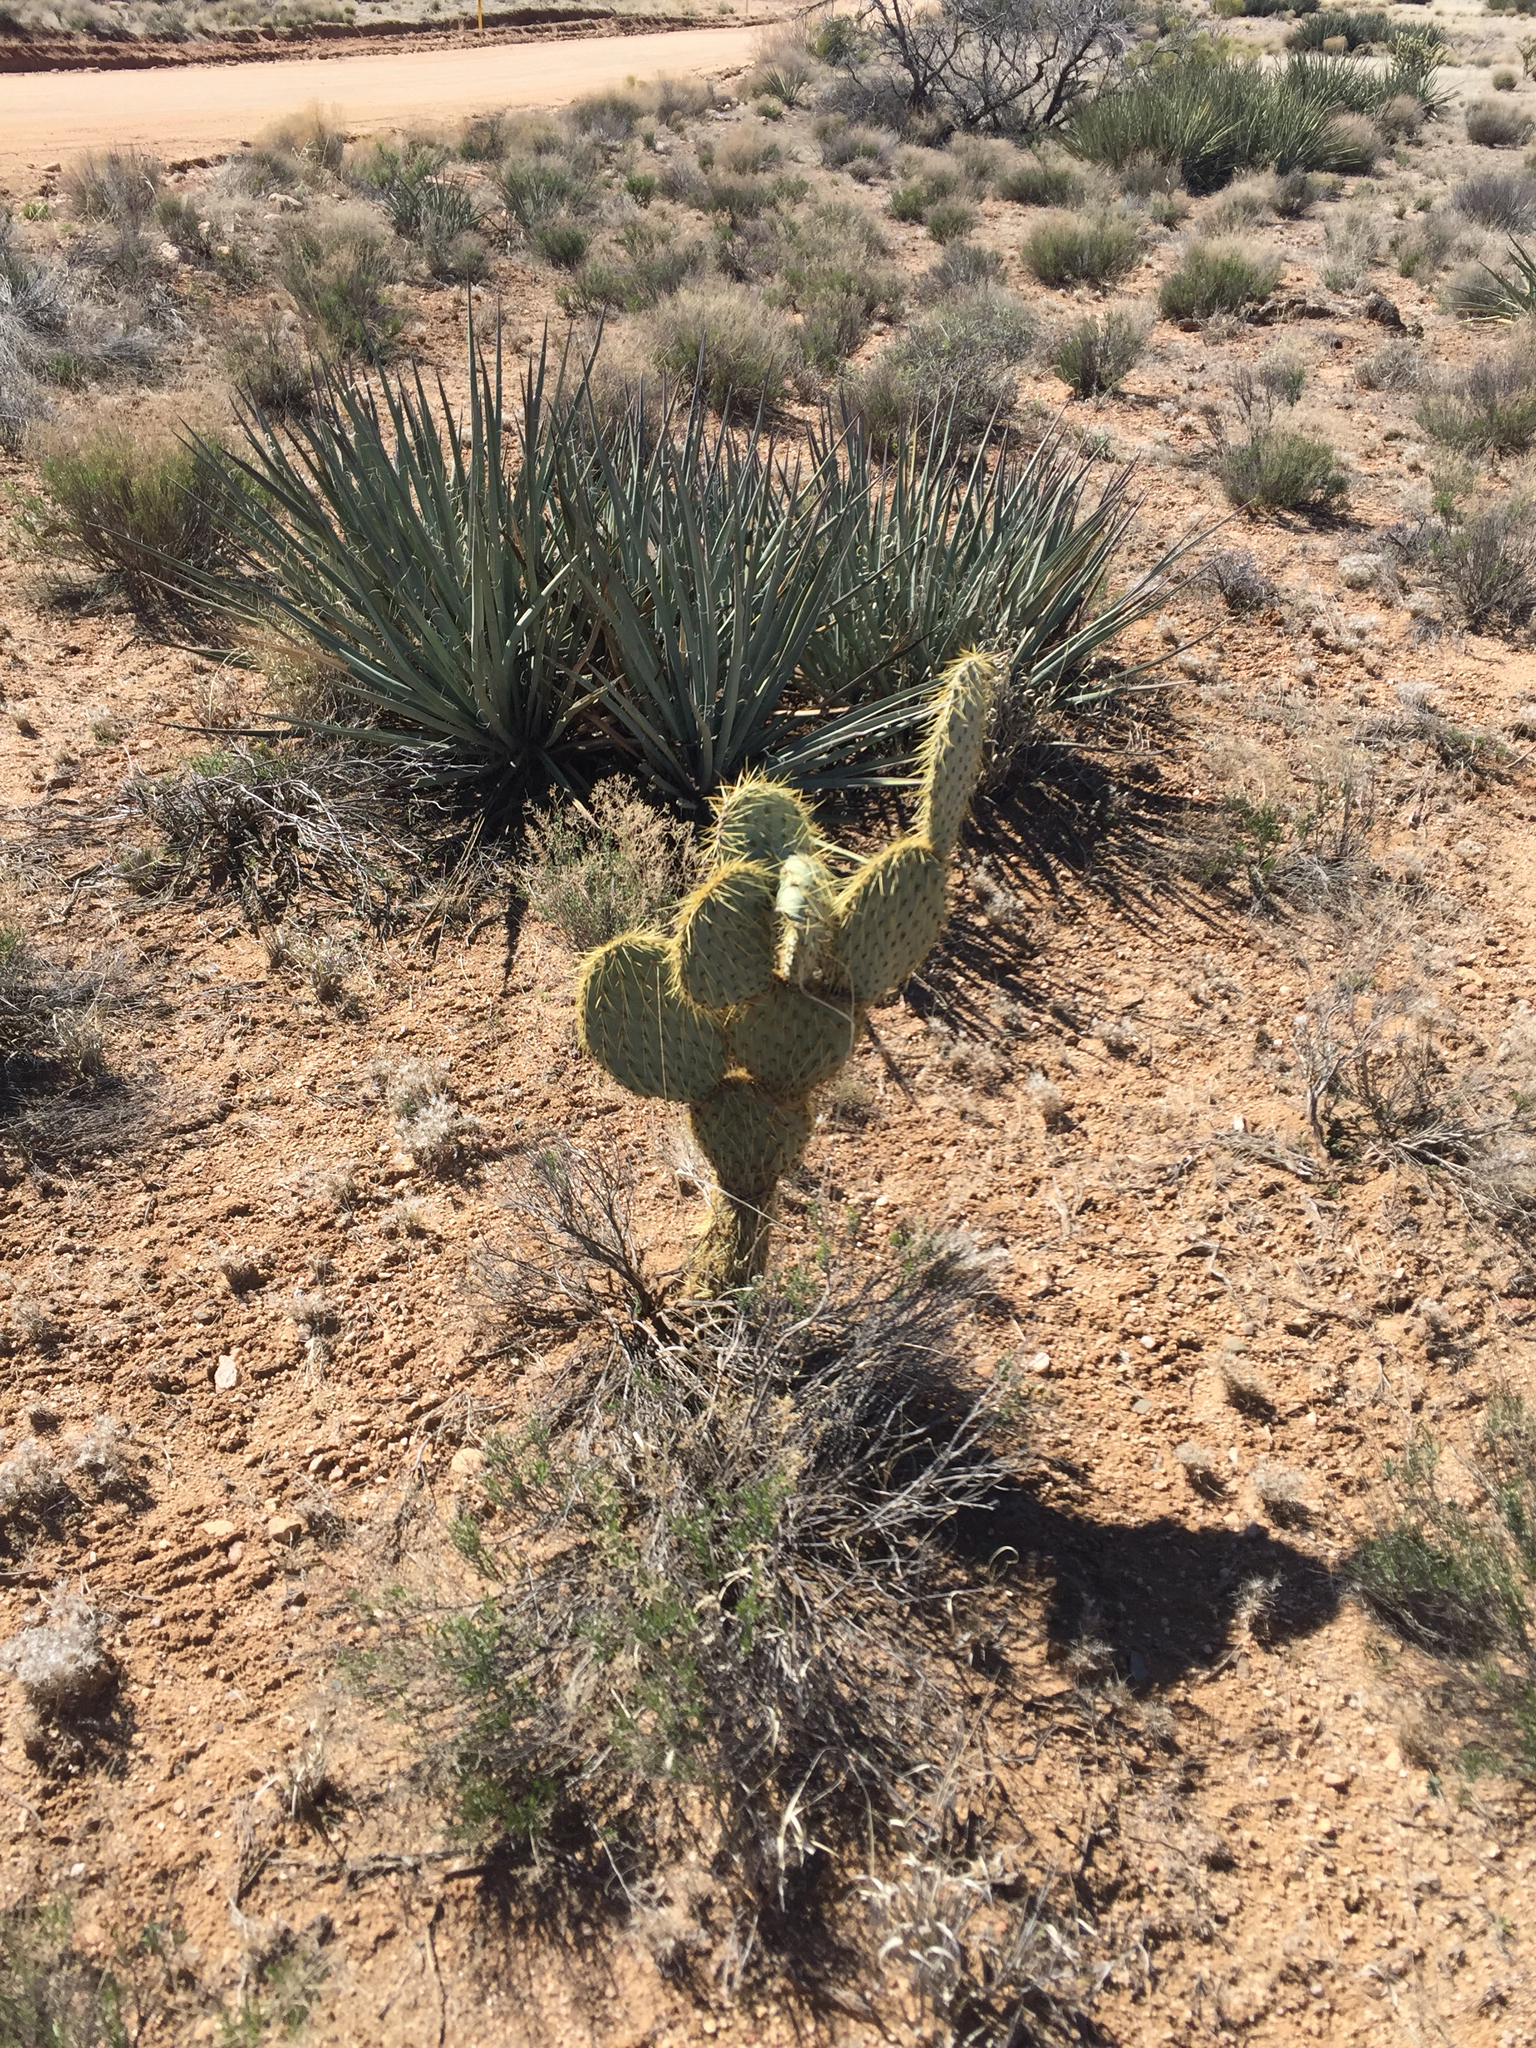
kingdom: Plantae
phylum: Tracheophyta
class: Magnoliopsida
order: Caryophyllales
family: Cactaceae
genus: Opuntia
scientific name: Opuntia chlorotica
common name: Dollar-joint prickly-pear
